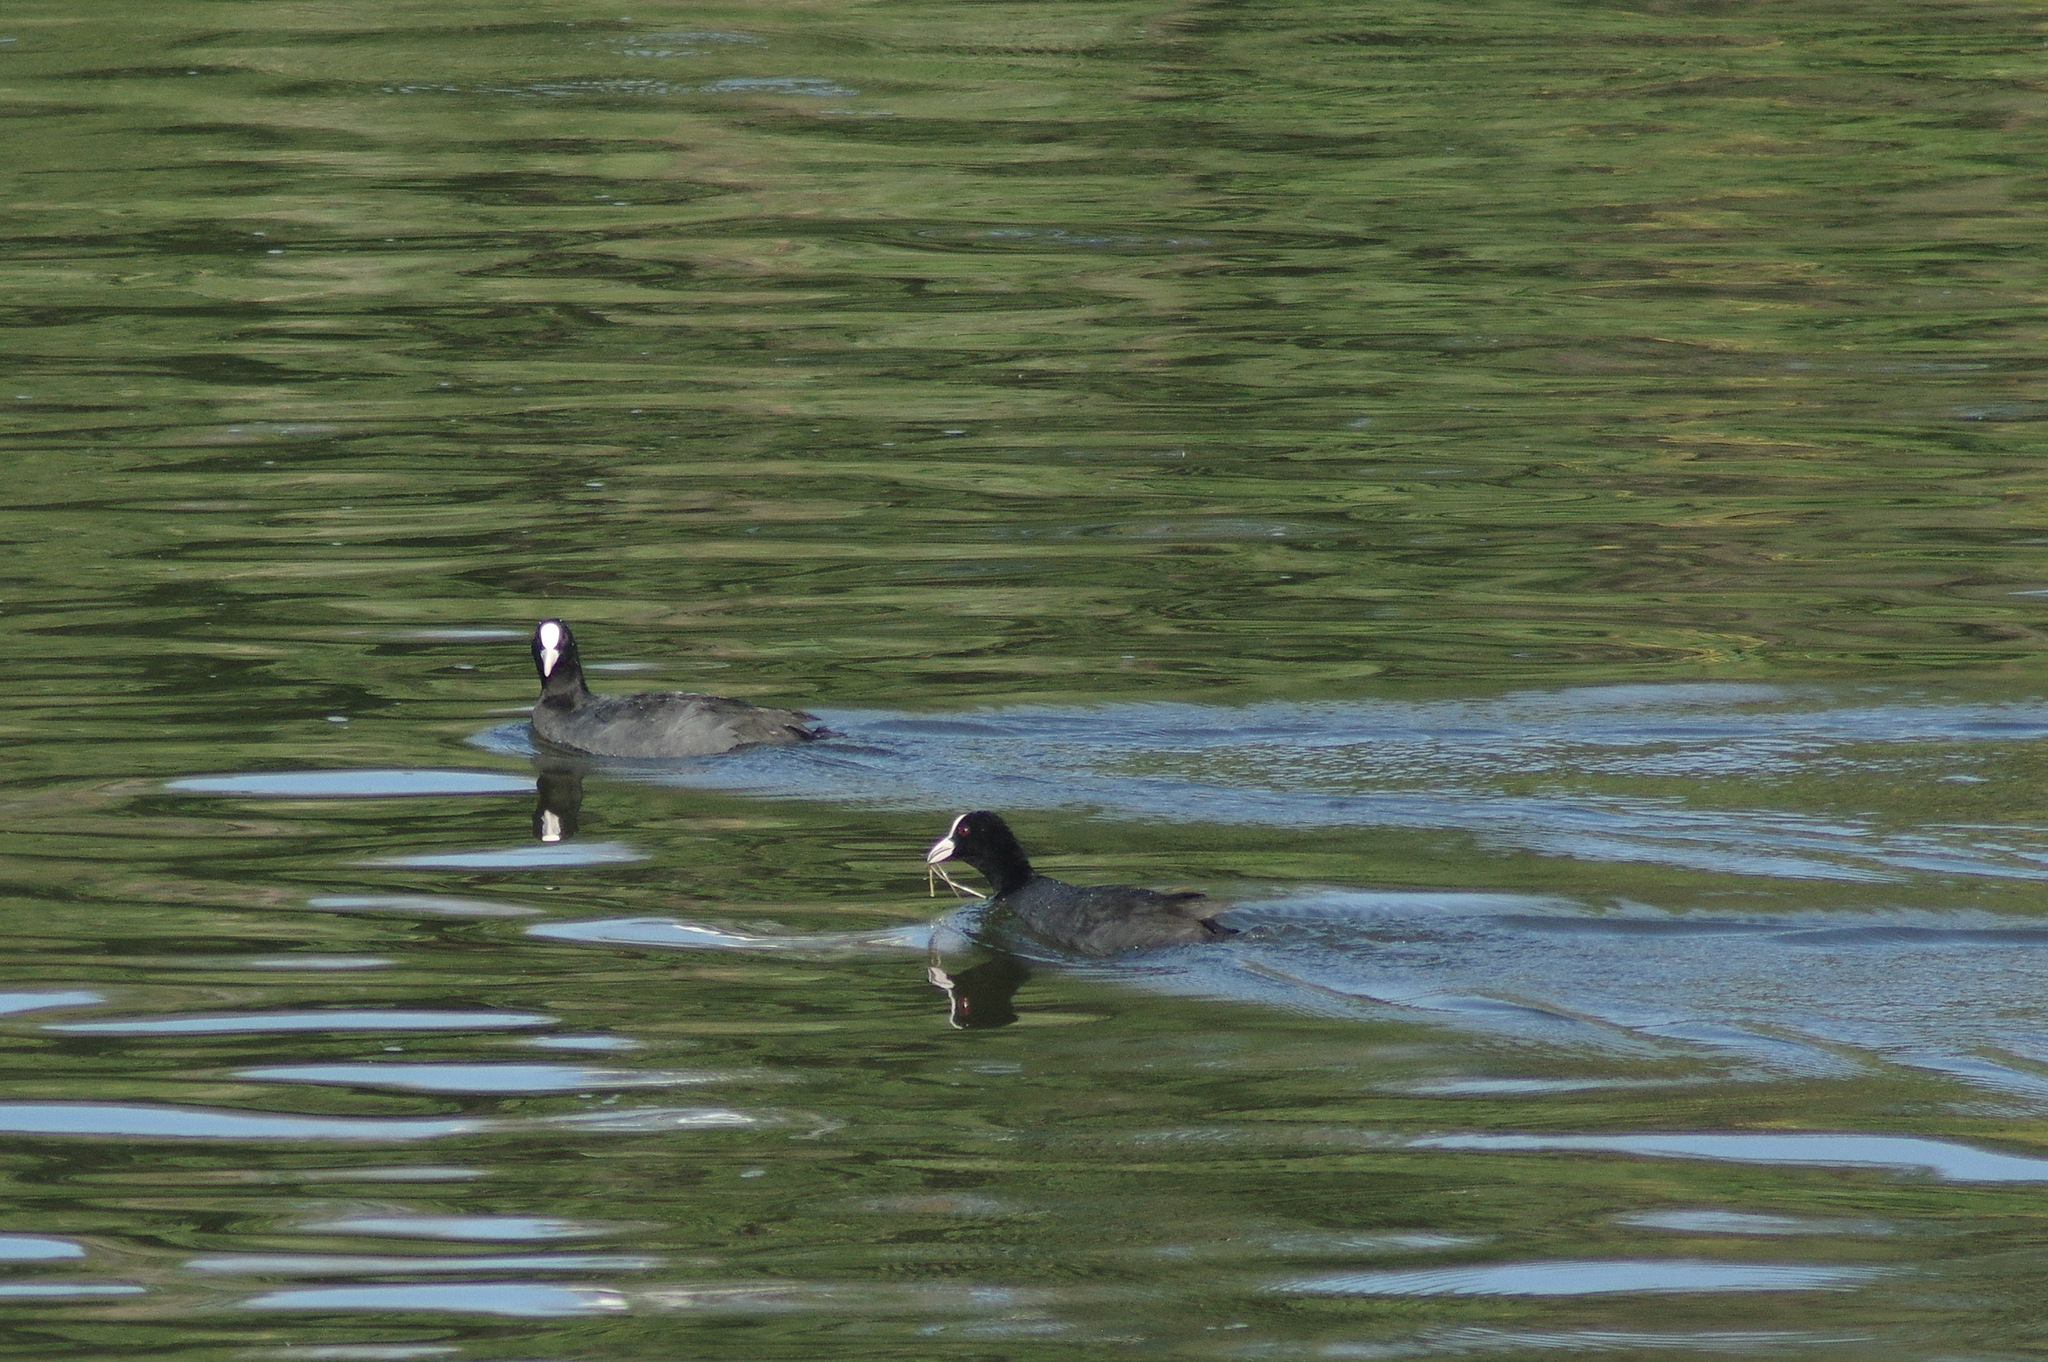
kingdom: Animalia
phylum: Chordata
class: Aves
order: Gruiformes
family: Rallidae
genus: Fulica
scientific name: Fulica atra
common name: Eurasian coot
